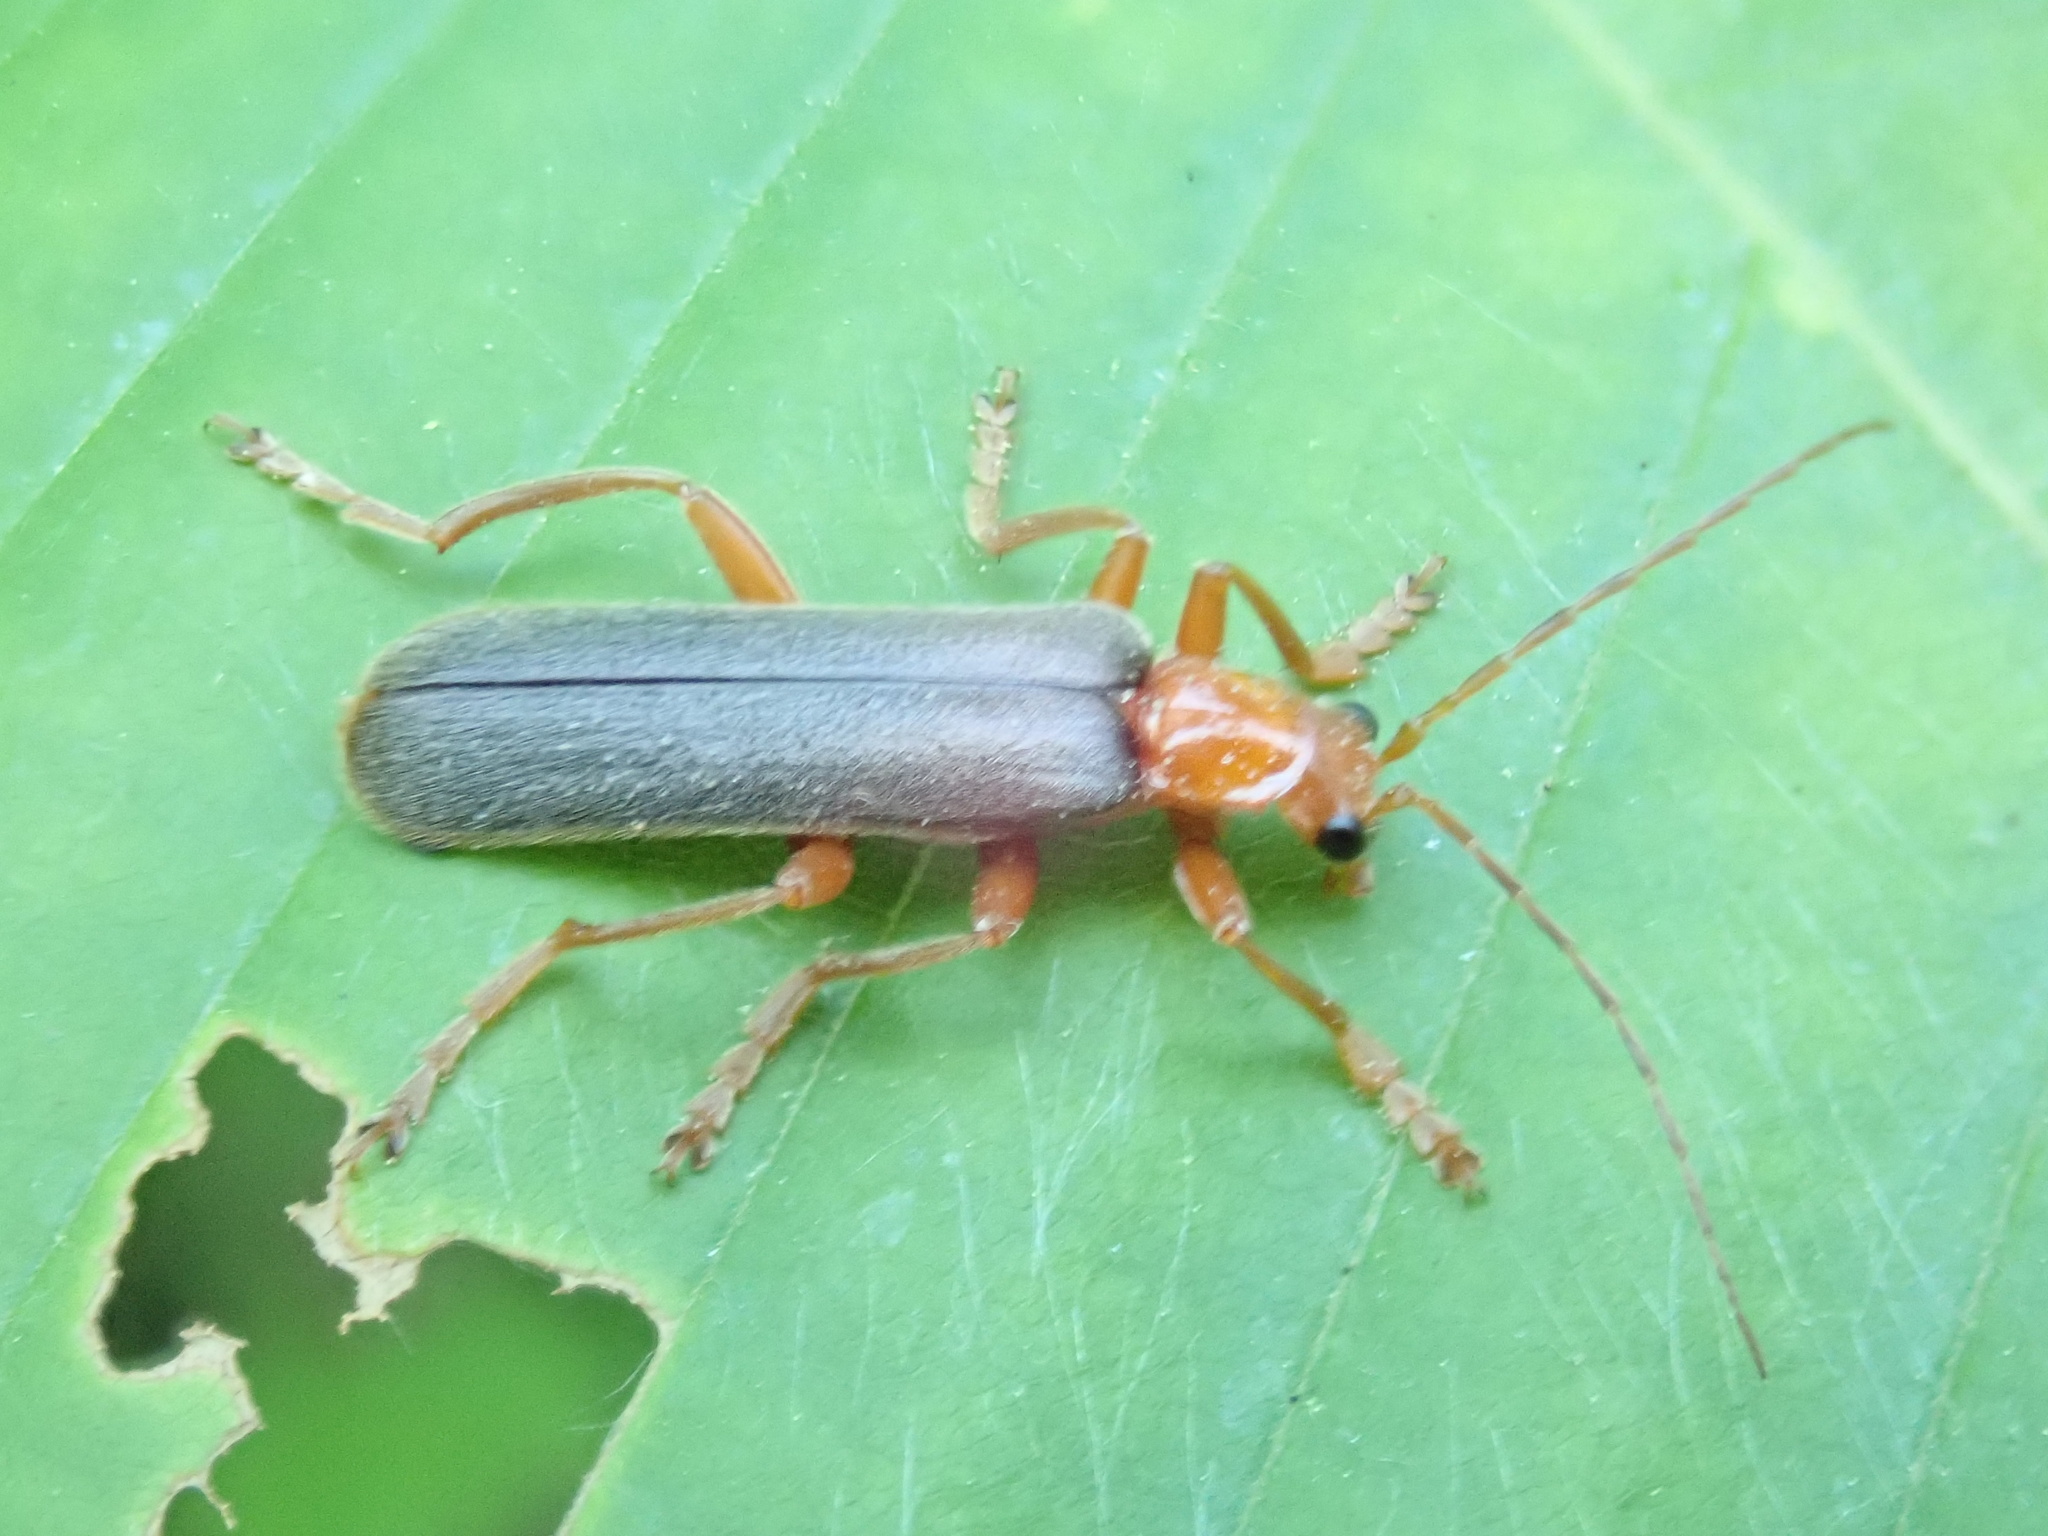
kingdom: Animalia
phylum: Arthropoda
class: Insecta
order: Coleoptera
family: Cantharidae
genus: Pacificanthia
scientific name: Pacificanthia rotundicollis
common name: Brown leatherwing beetle
